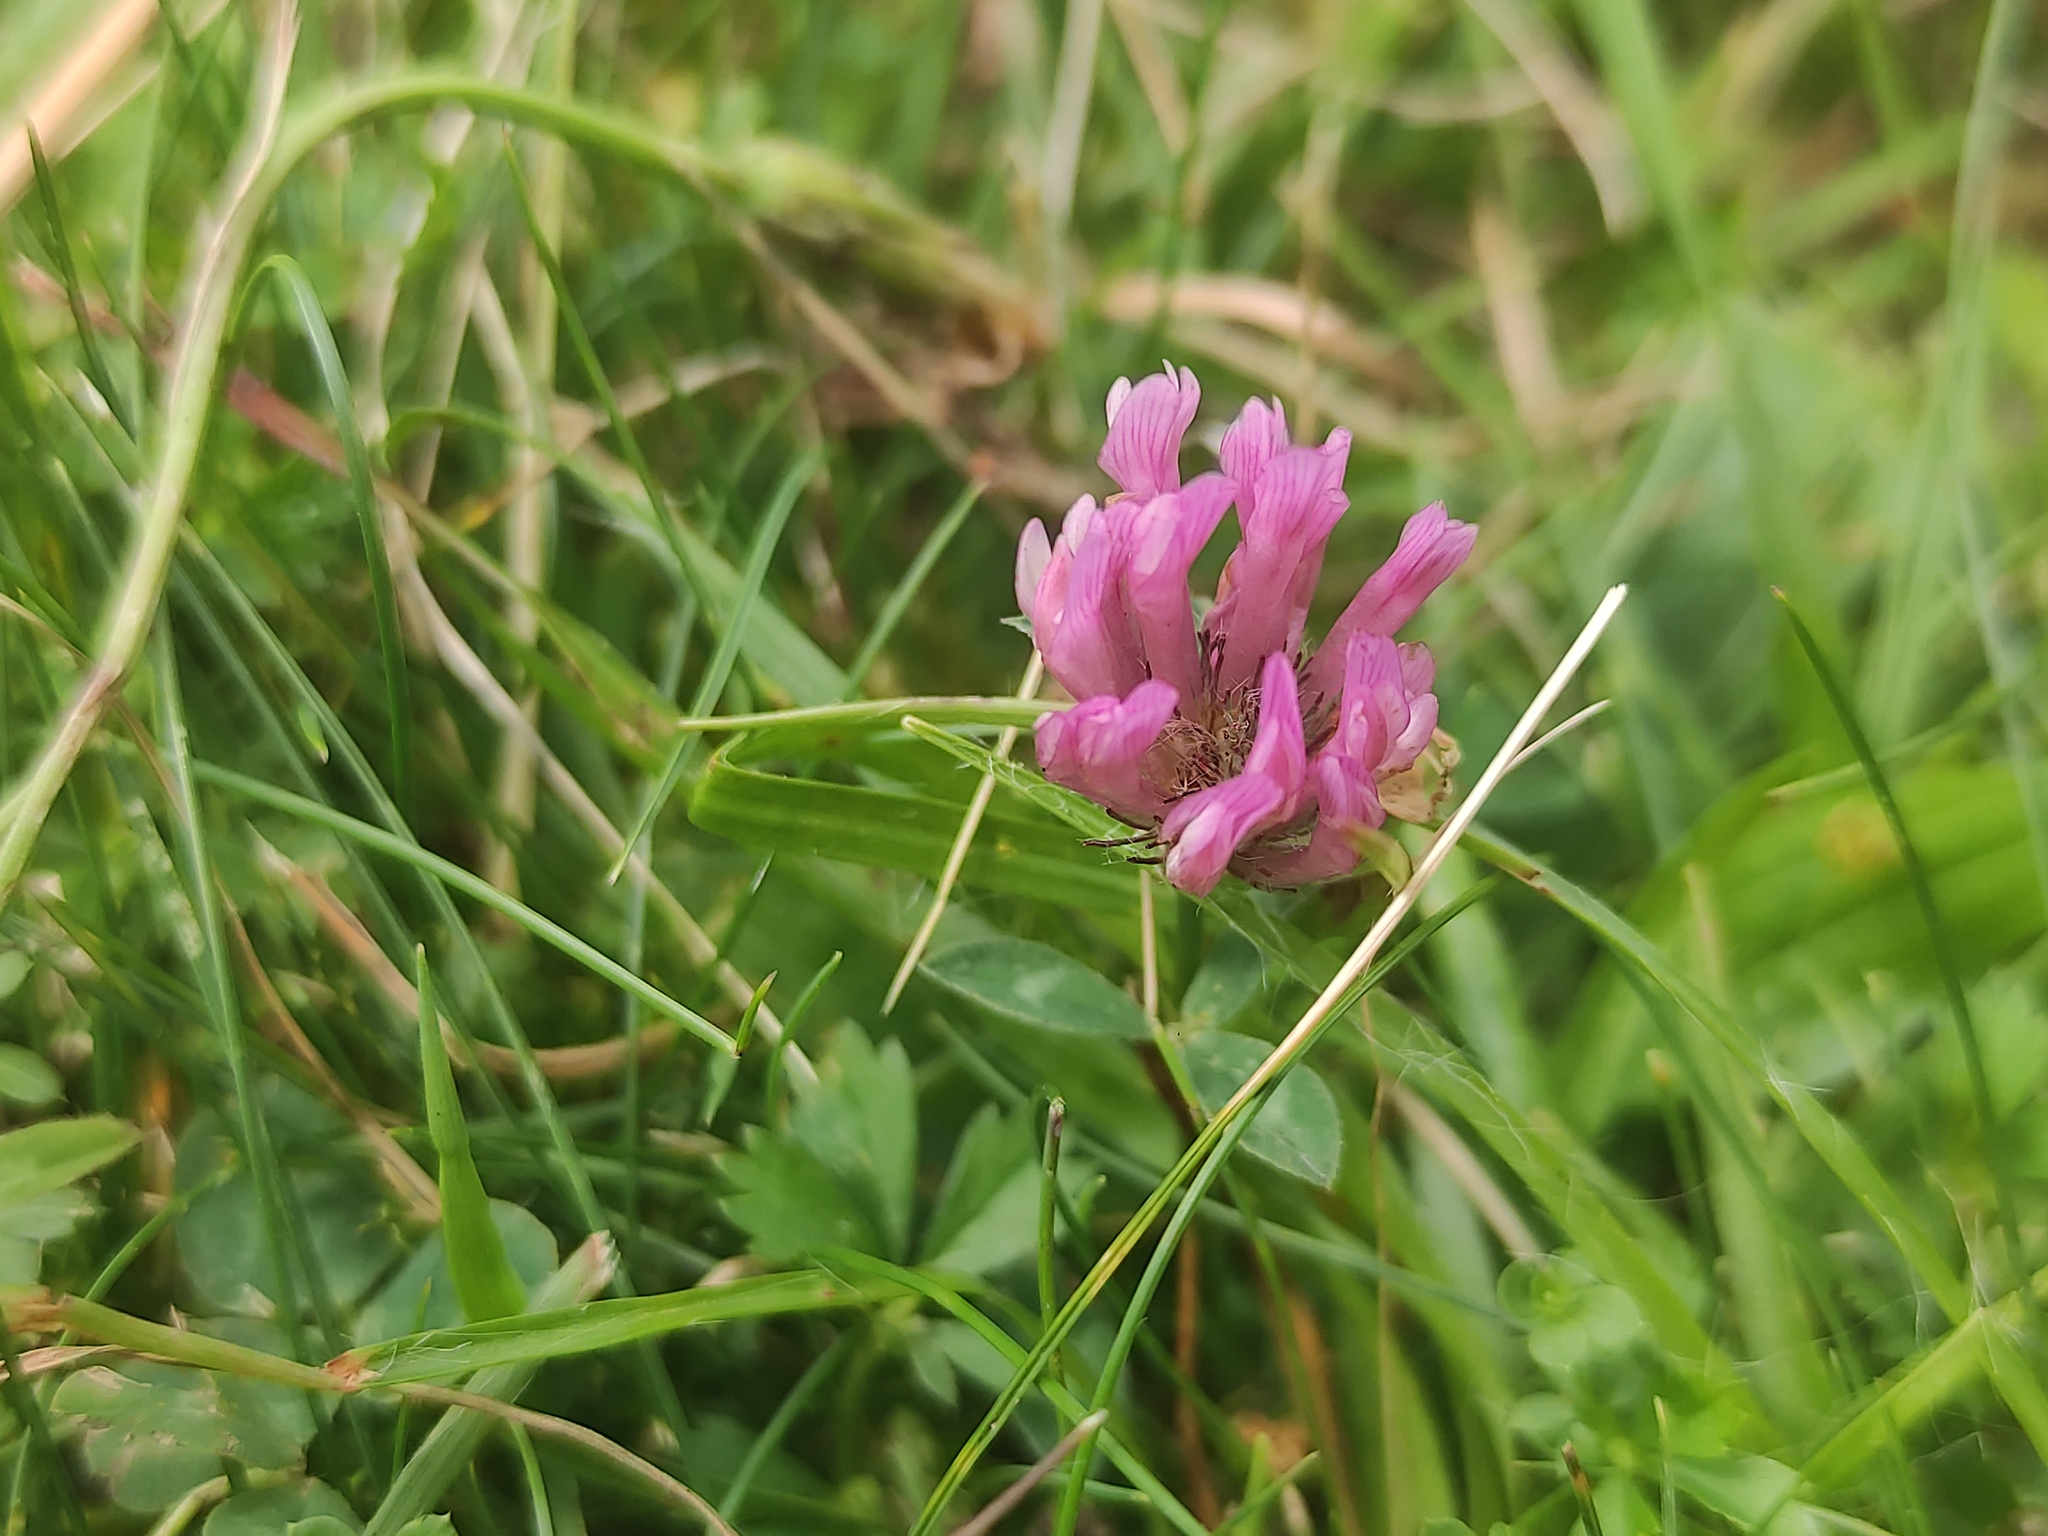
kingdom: Plantae
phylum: Tracheophyta
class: Magnoliopsida
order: Fabales
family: Fabaceae
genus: Trifolium
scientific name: Trifolium pratense
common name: Red clover
